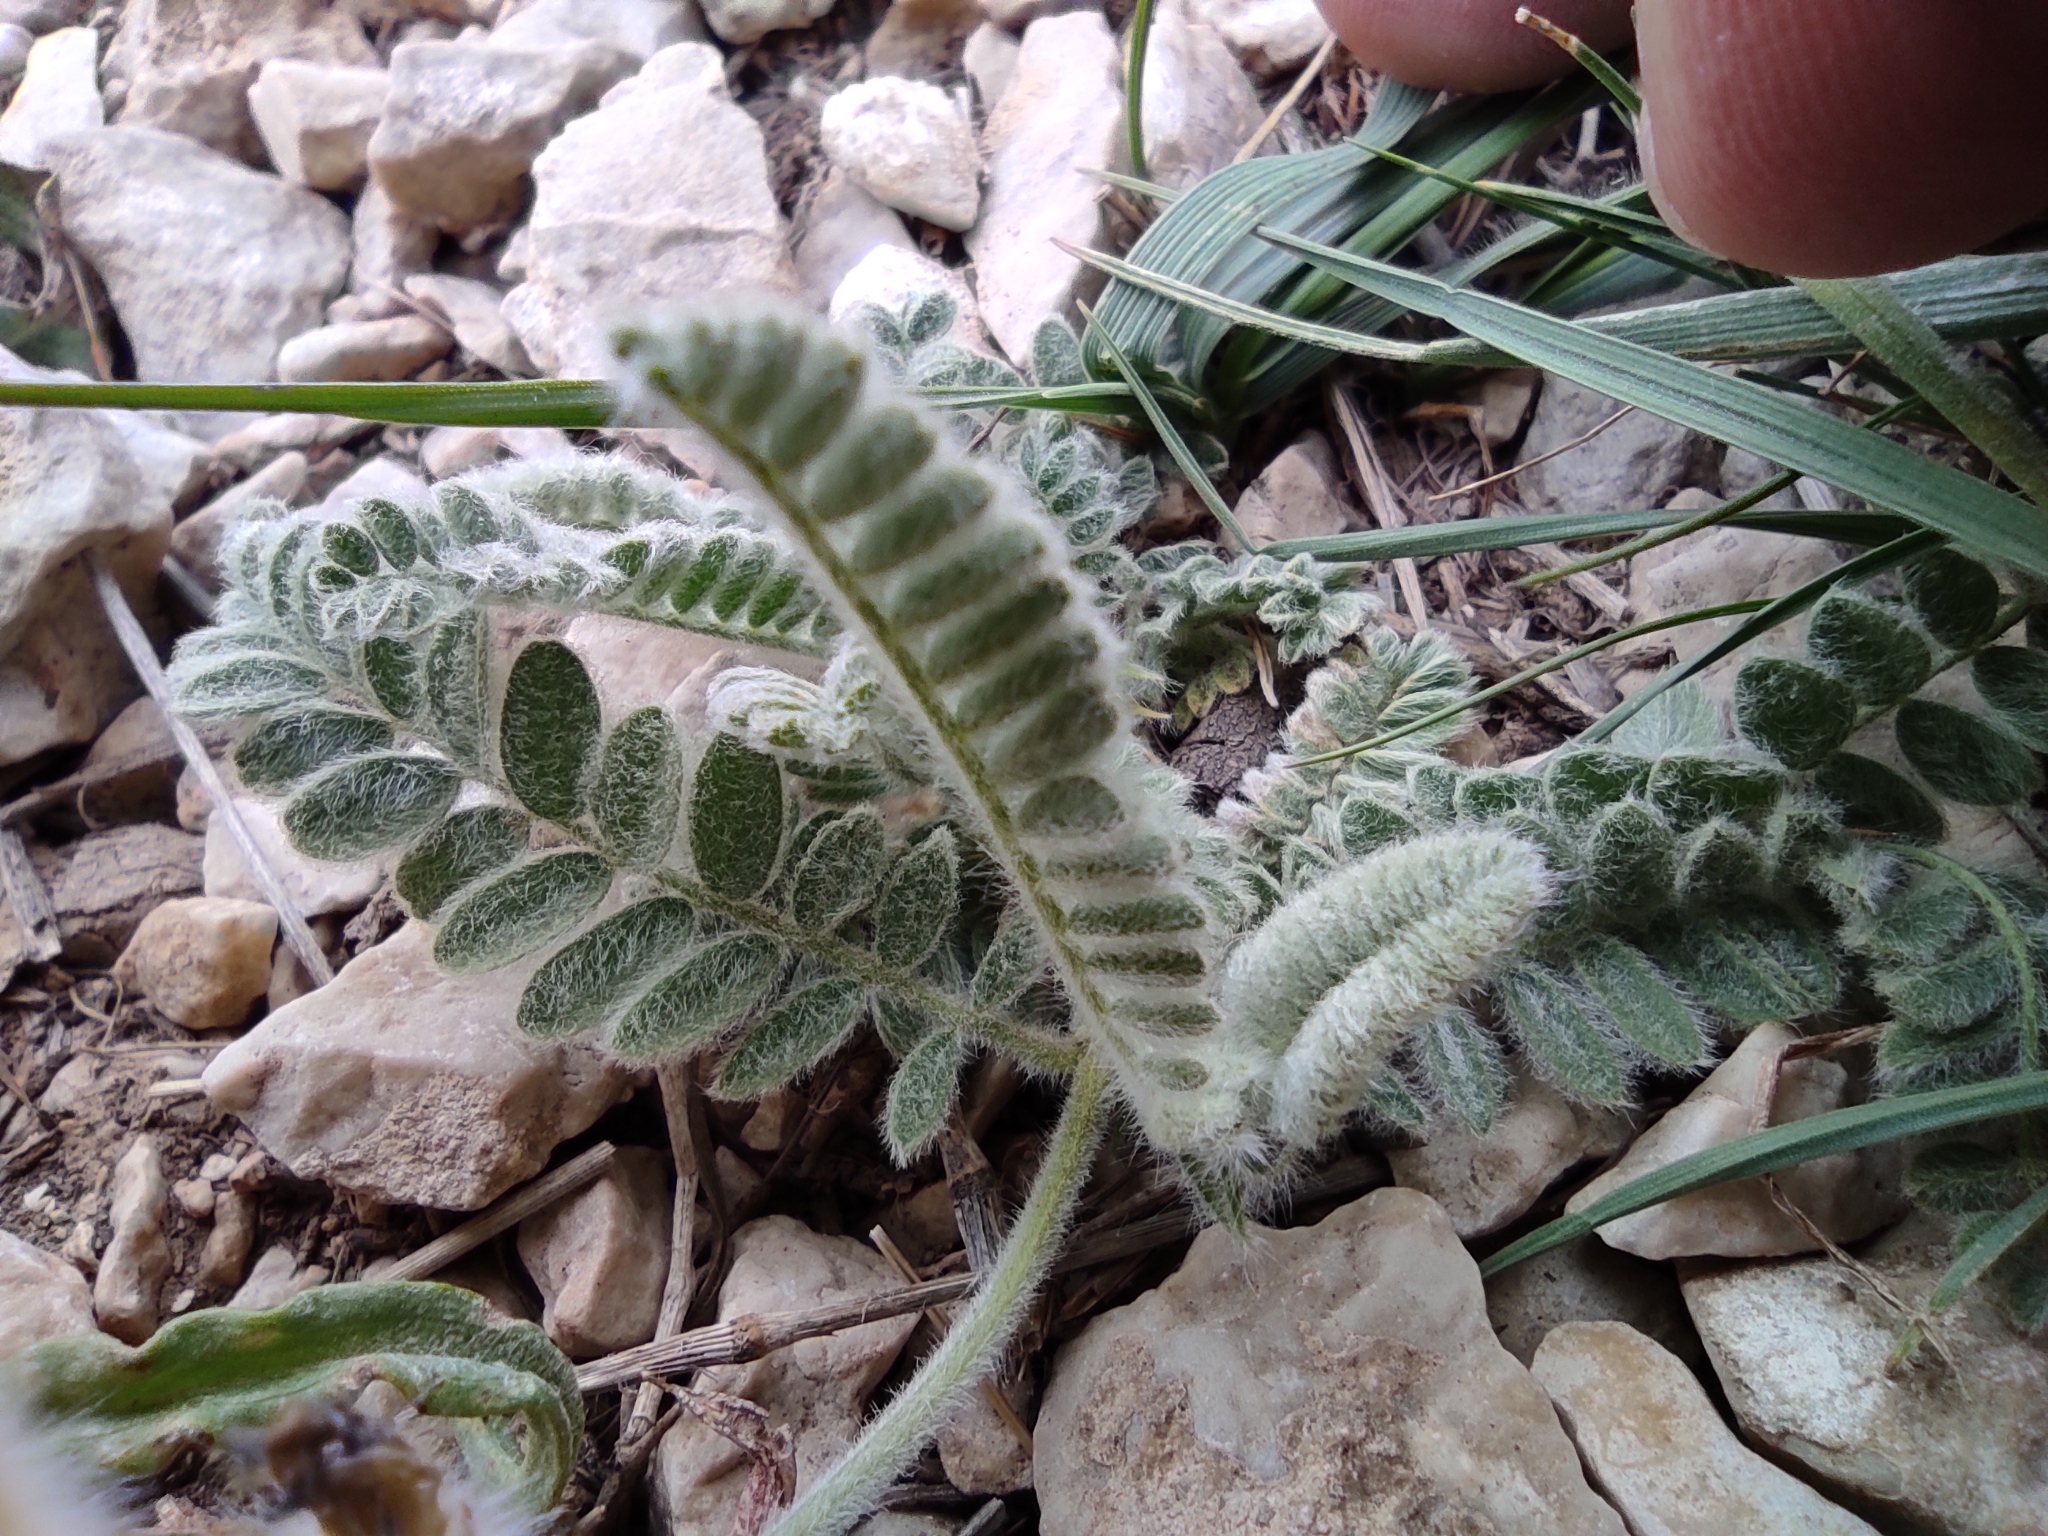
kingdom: Plantae
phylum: Tracheophyta
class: Magnoliopsida
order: Fabales
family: Fabaceae
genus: Astragalus
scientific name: Astragalus lineatus
